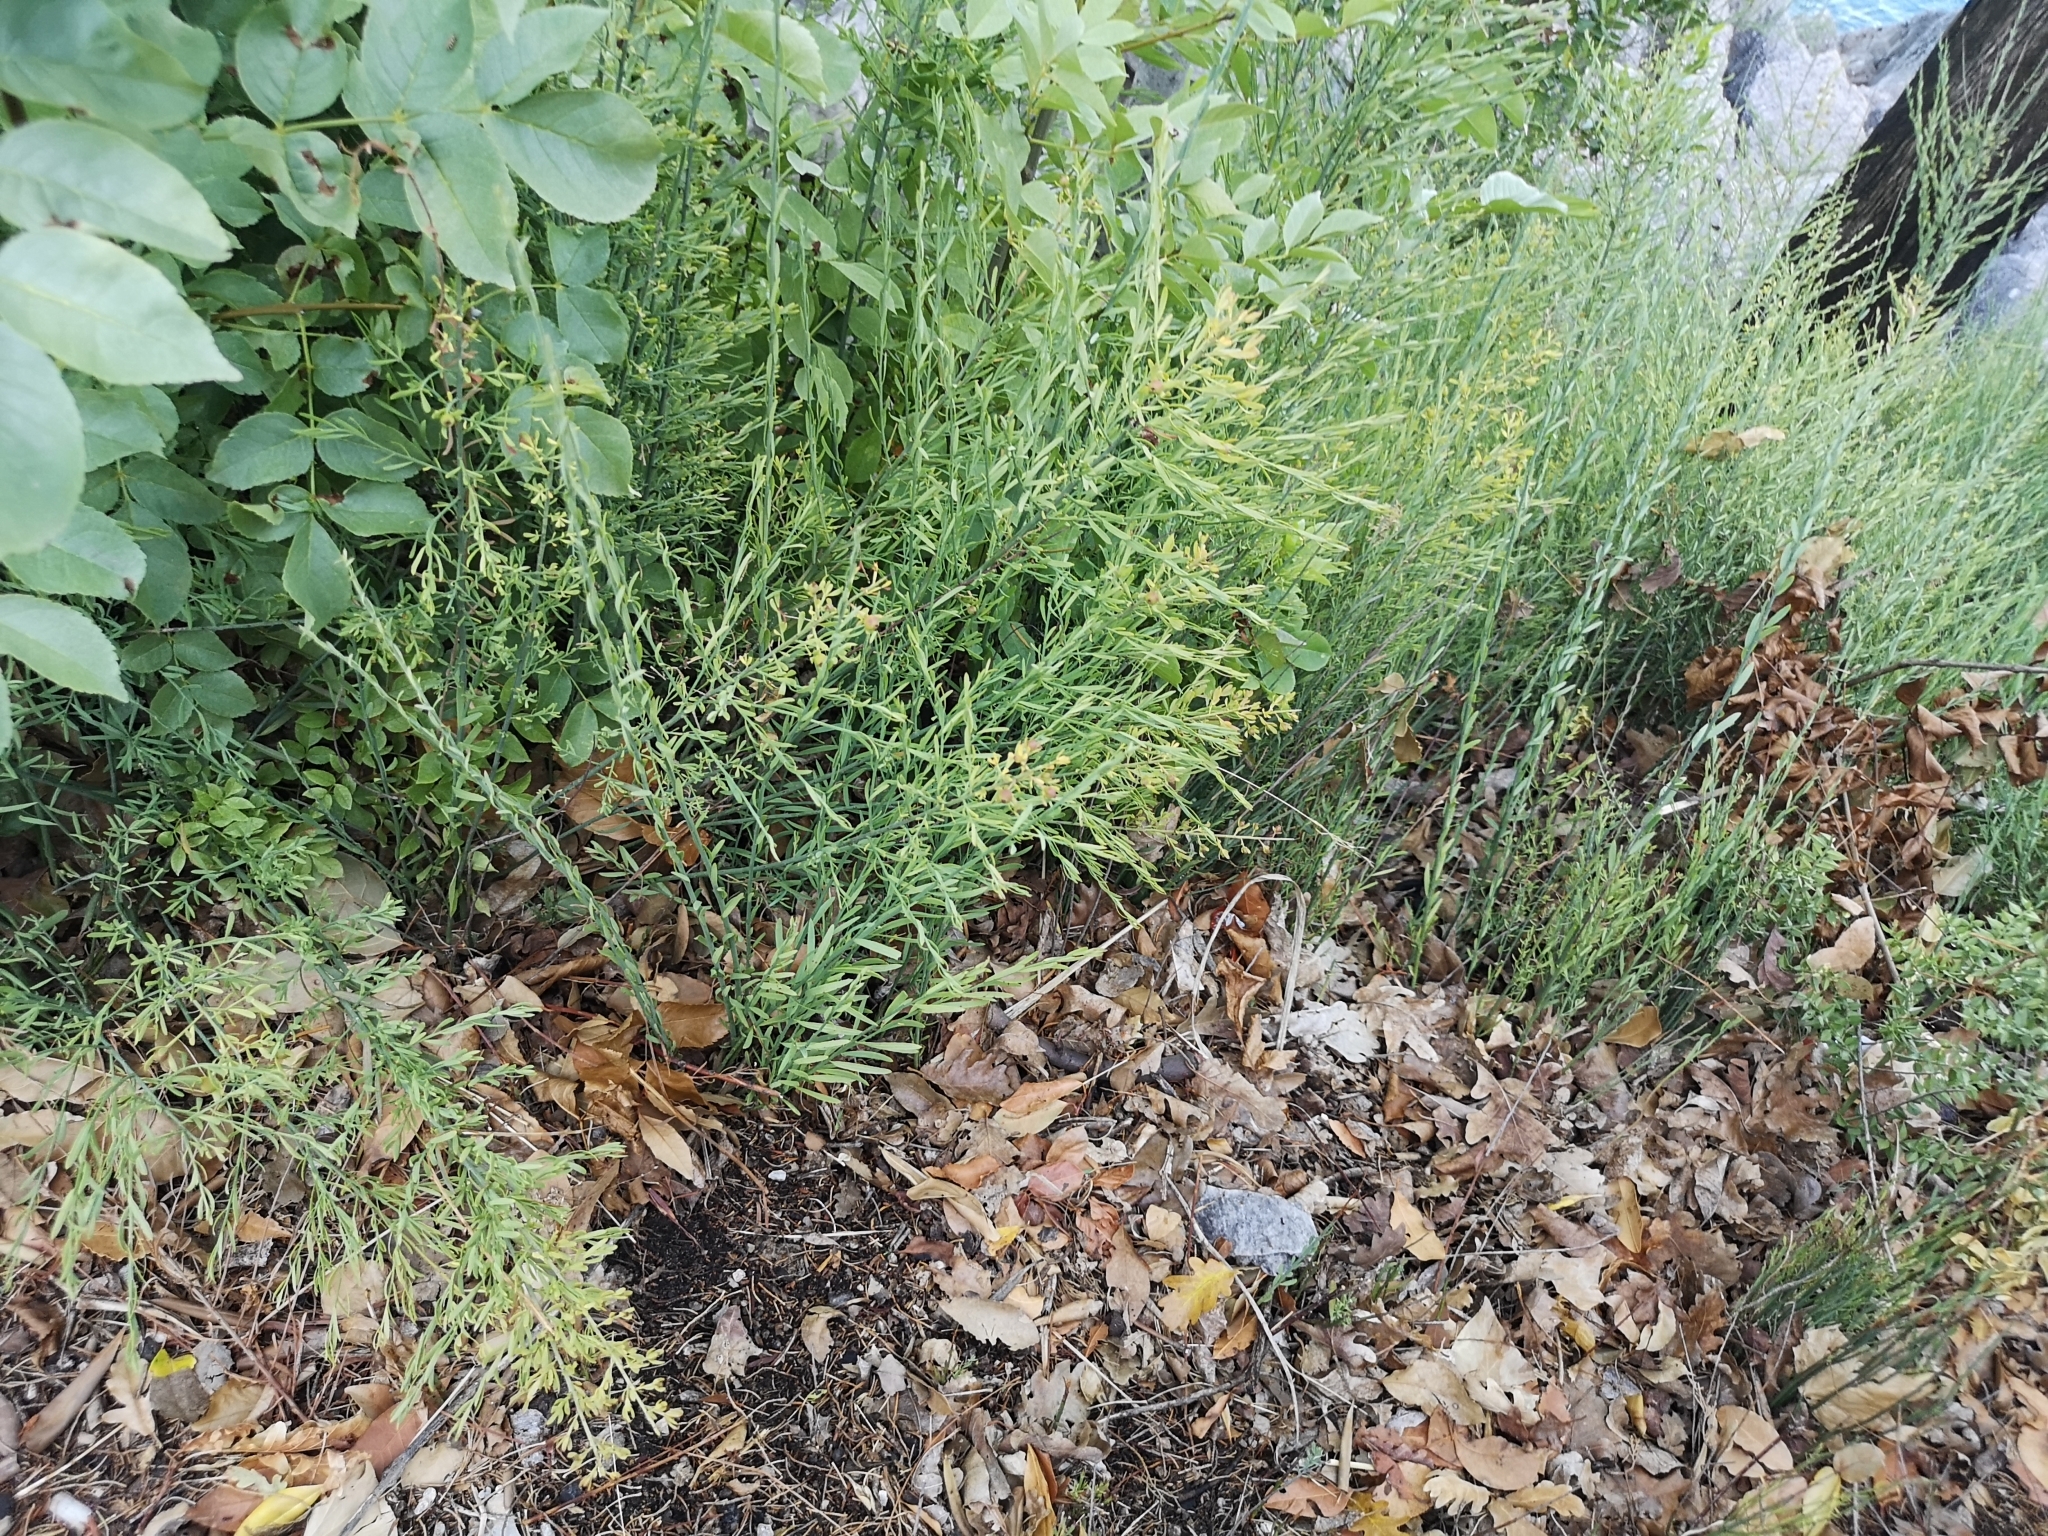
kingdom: Plantae
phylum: Tracheophyta
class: Magnoliopsida
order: Santalales
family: Santalaceae
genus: Osyris
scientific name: Osyris alba
